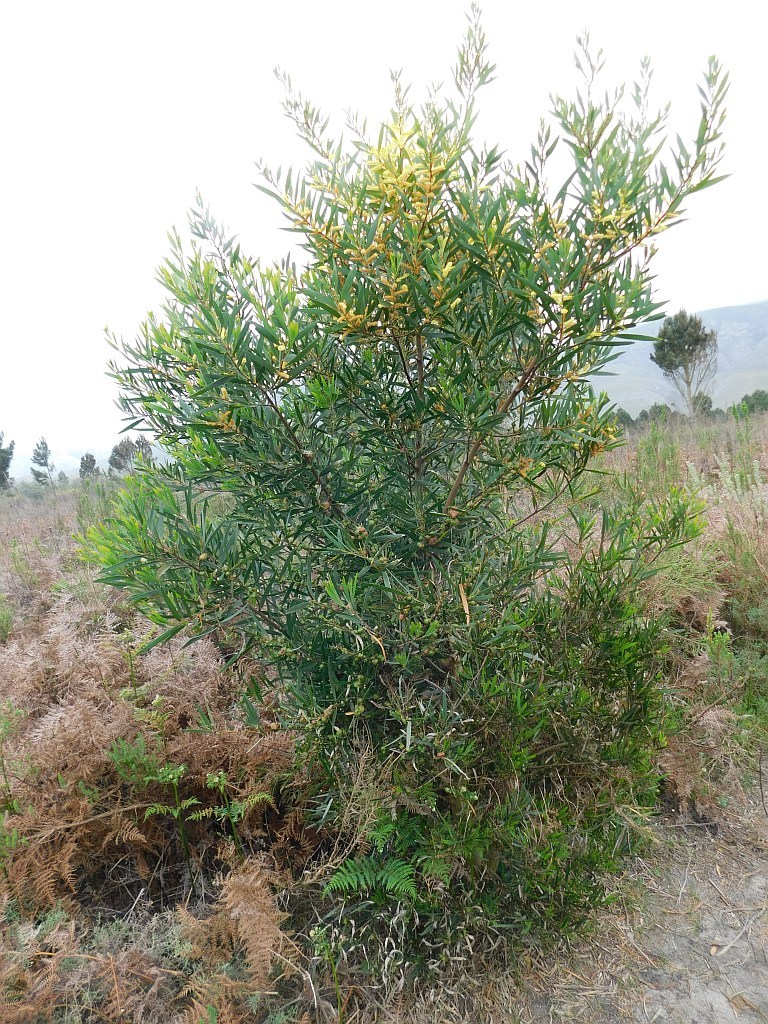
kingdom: Plantae
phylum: Tracheophyta
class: Magnoliopsida
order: Fabales
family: Fabaceae
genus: Acacia
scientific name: Acacia longifolia
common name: Sydney golden wattle
